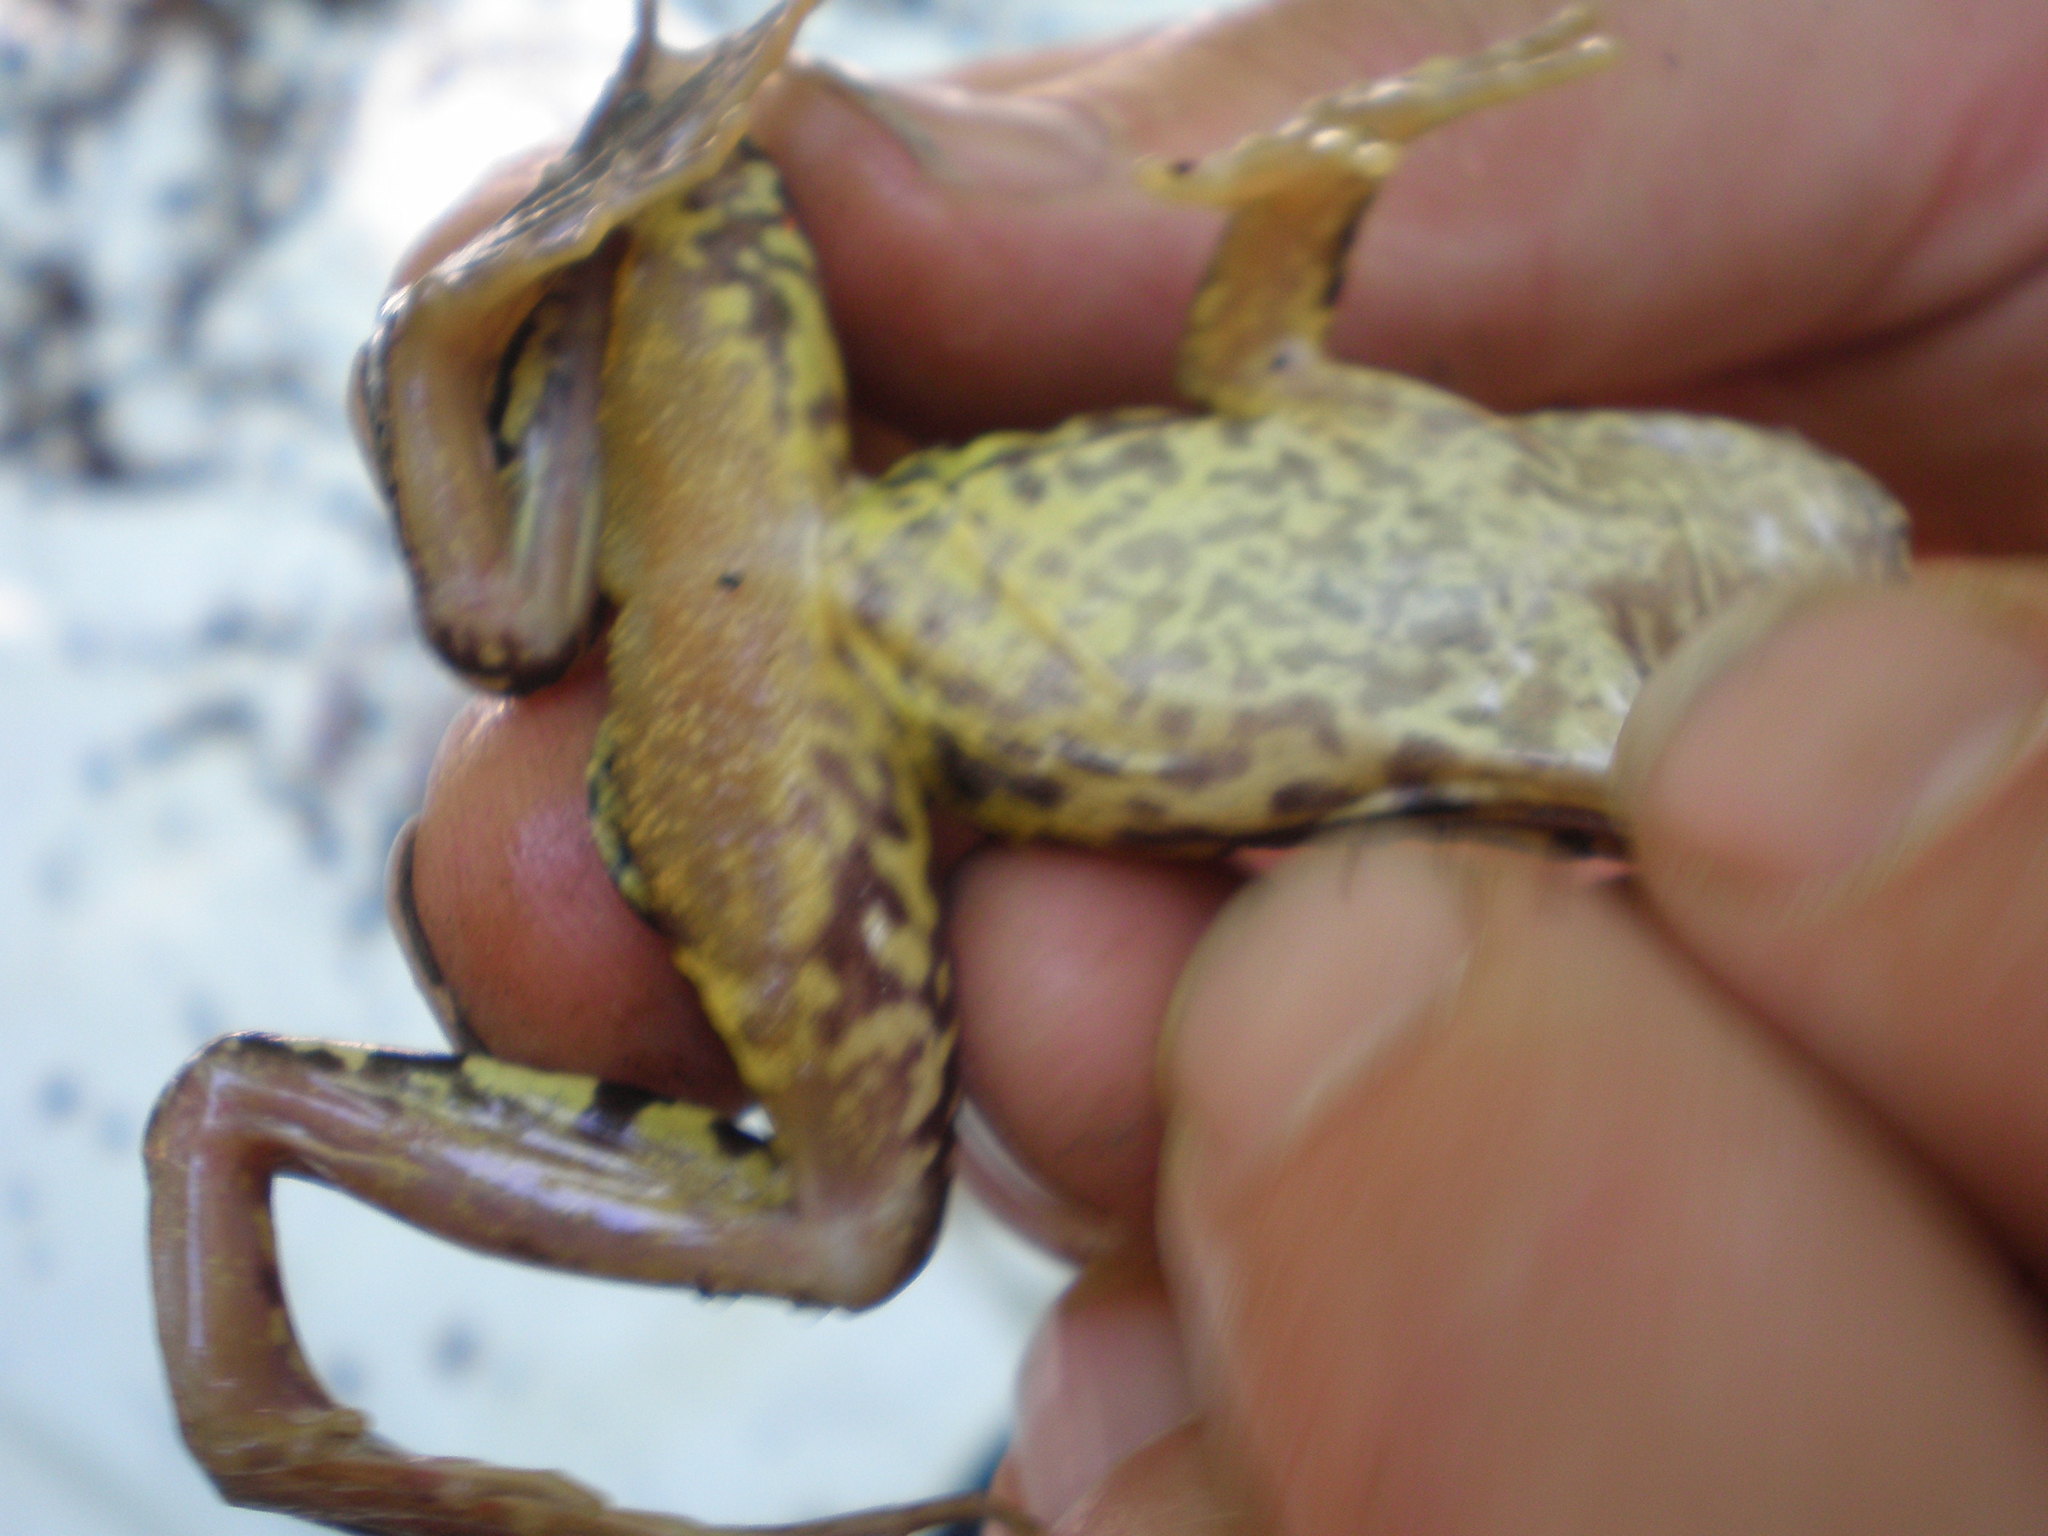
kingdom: Animalia
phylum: Chordata
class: Amphibia
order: Anura
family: Ranidae
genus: Rana
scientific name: Rana temporaria
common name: Common frog
